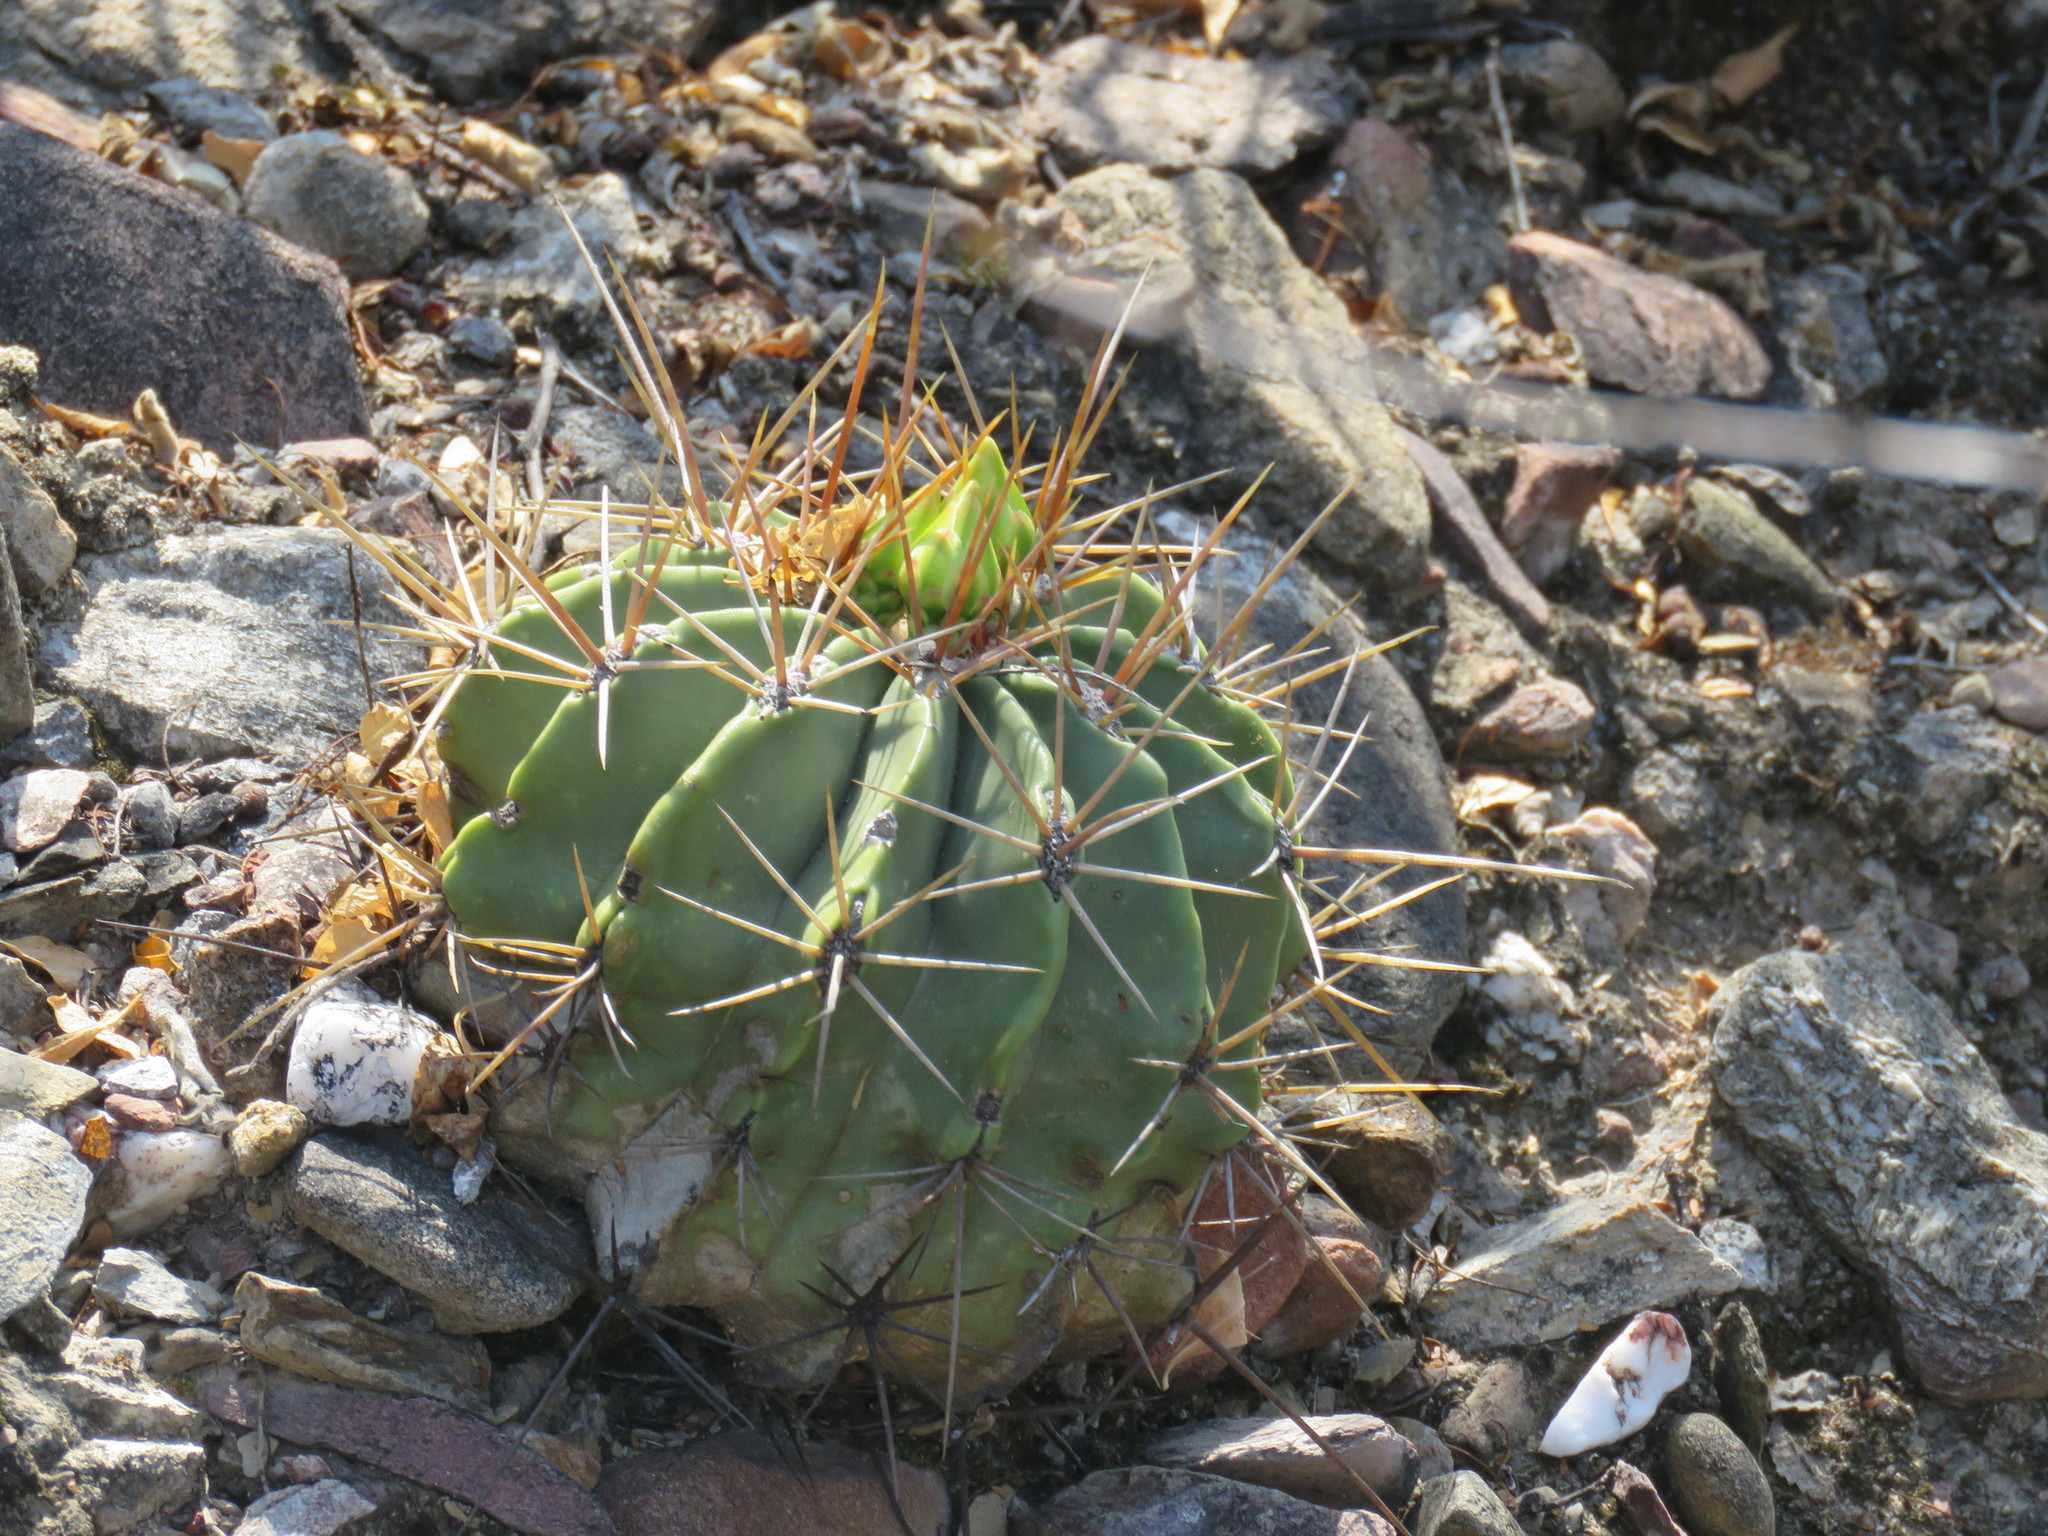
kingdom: Plantae
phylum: Tracheophyta
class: Magnoliopsida
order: Caryophyllales
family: Cactaceae
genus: Parrycactus
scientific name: Parrycactus echidne
